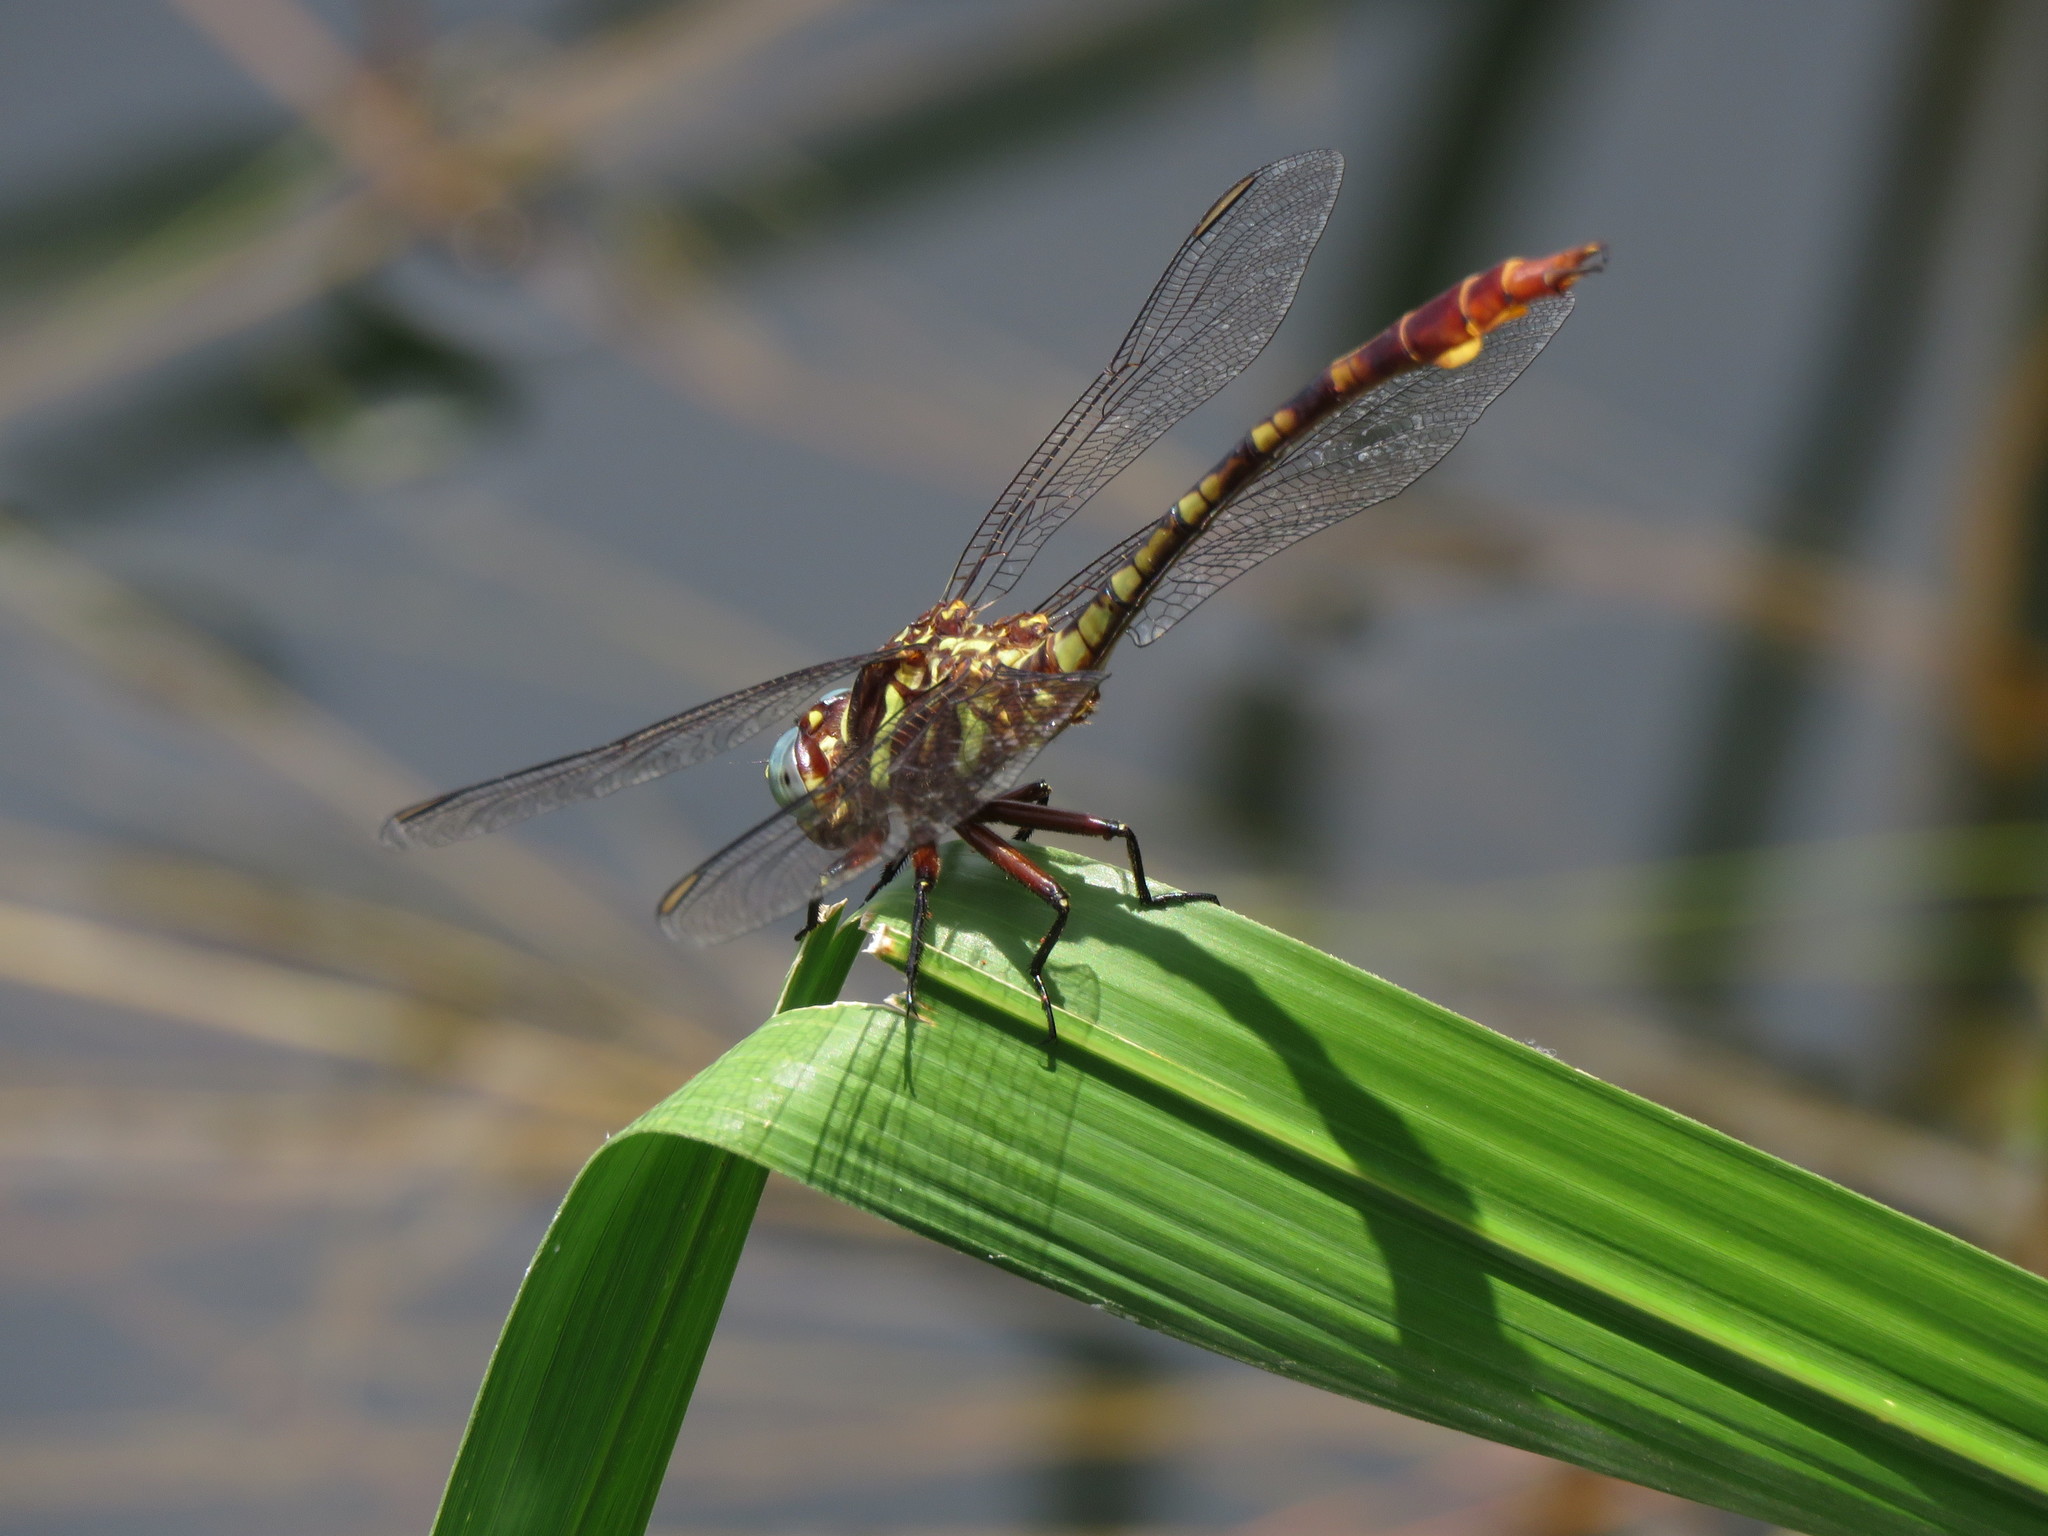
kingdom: Animalia
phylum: Arthropoda
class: Insecta
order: Odonata
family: Gomphidae
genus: Aphylla
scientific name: Aphylla williamsoni
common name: Two-striped forceptail
